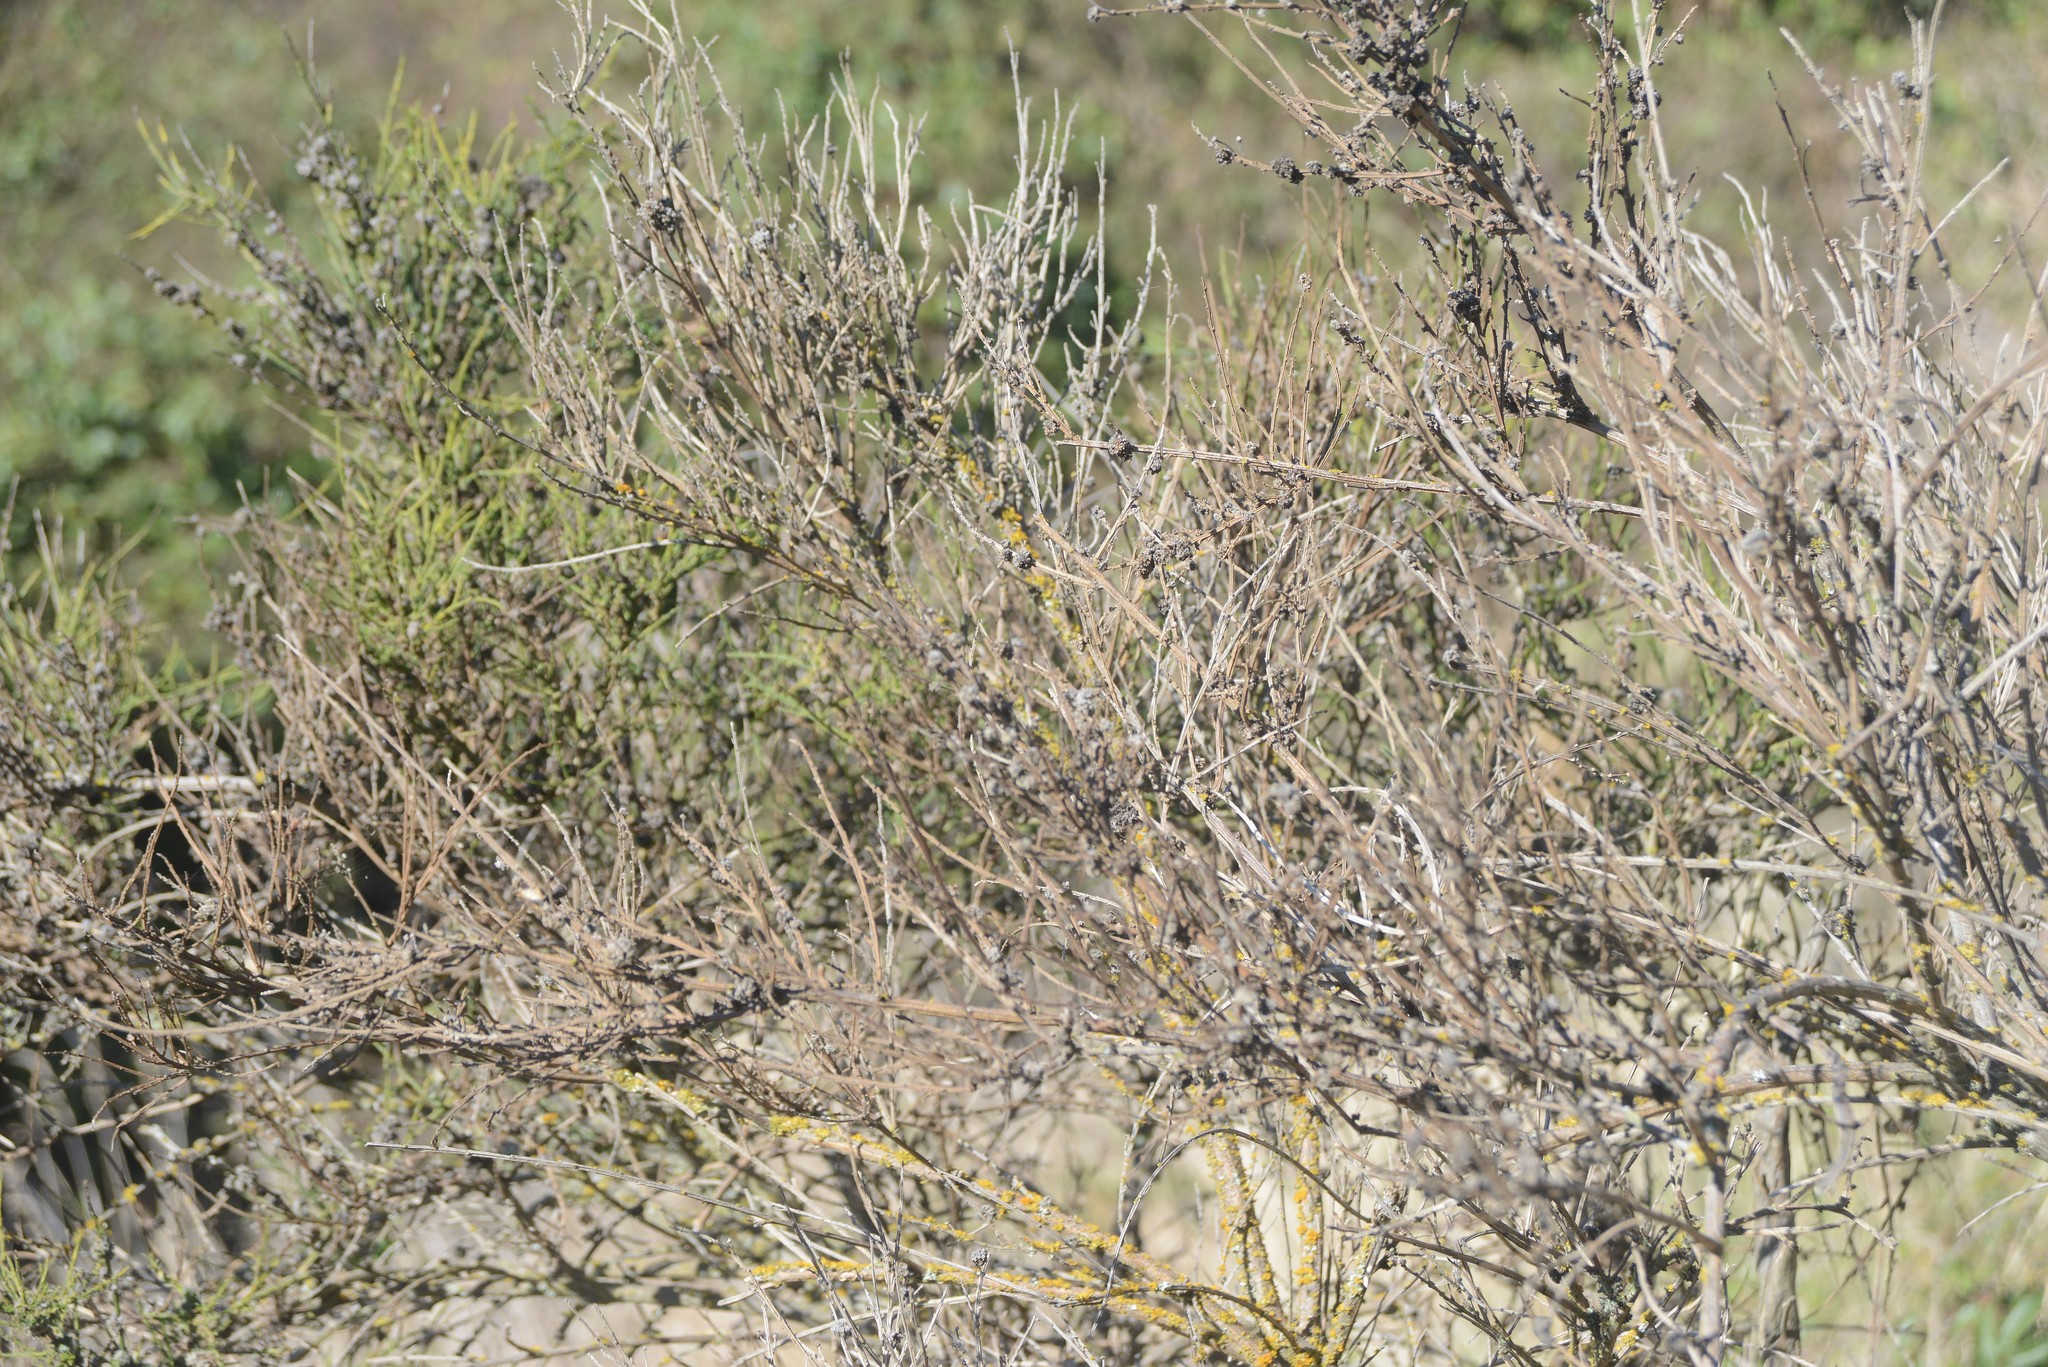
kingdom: Animalia
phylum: Arthropoda
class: Arachnida
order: Trombidiformes
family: Eriophyidae
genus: Aceria
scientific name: Aceria genistae
